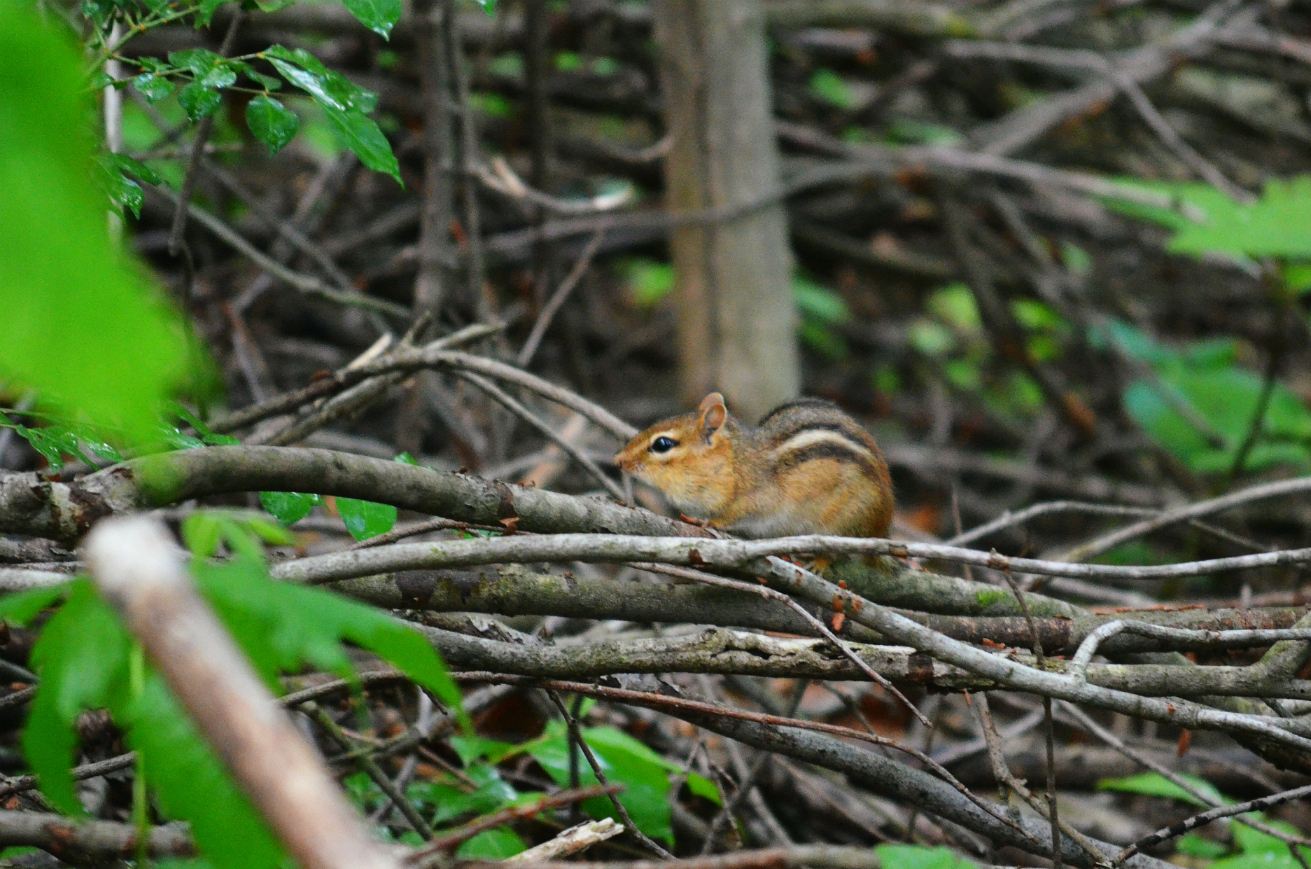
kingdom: Animalia
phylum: Chordata
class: Mammalia
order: Rodentia
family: Sciuridae
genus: Tamias
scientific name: Tamias striatus
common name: Eastern chipmunk
